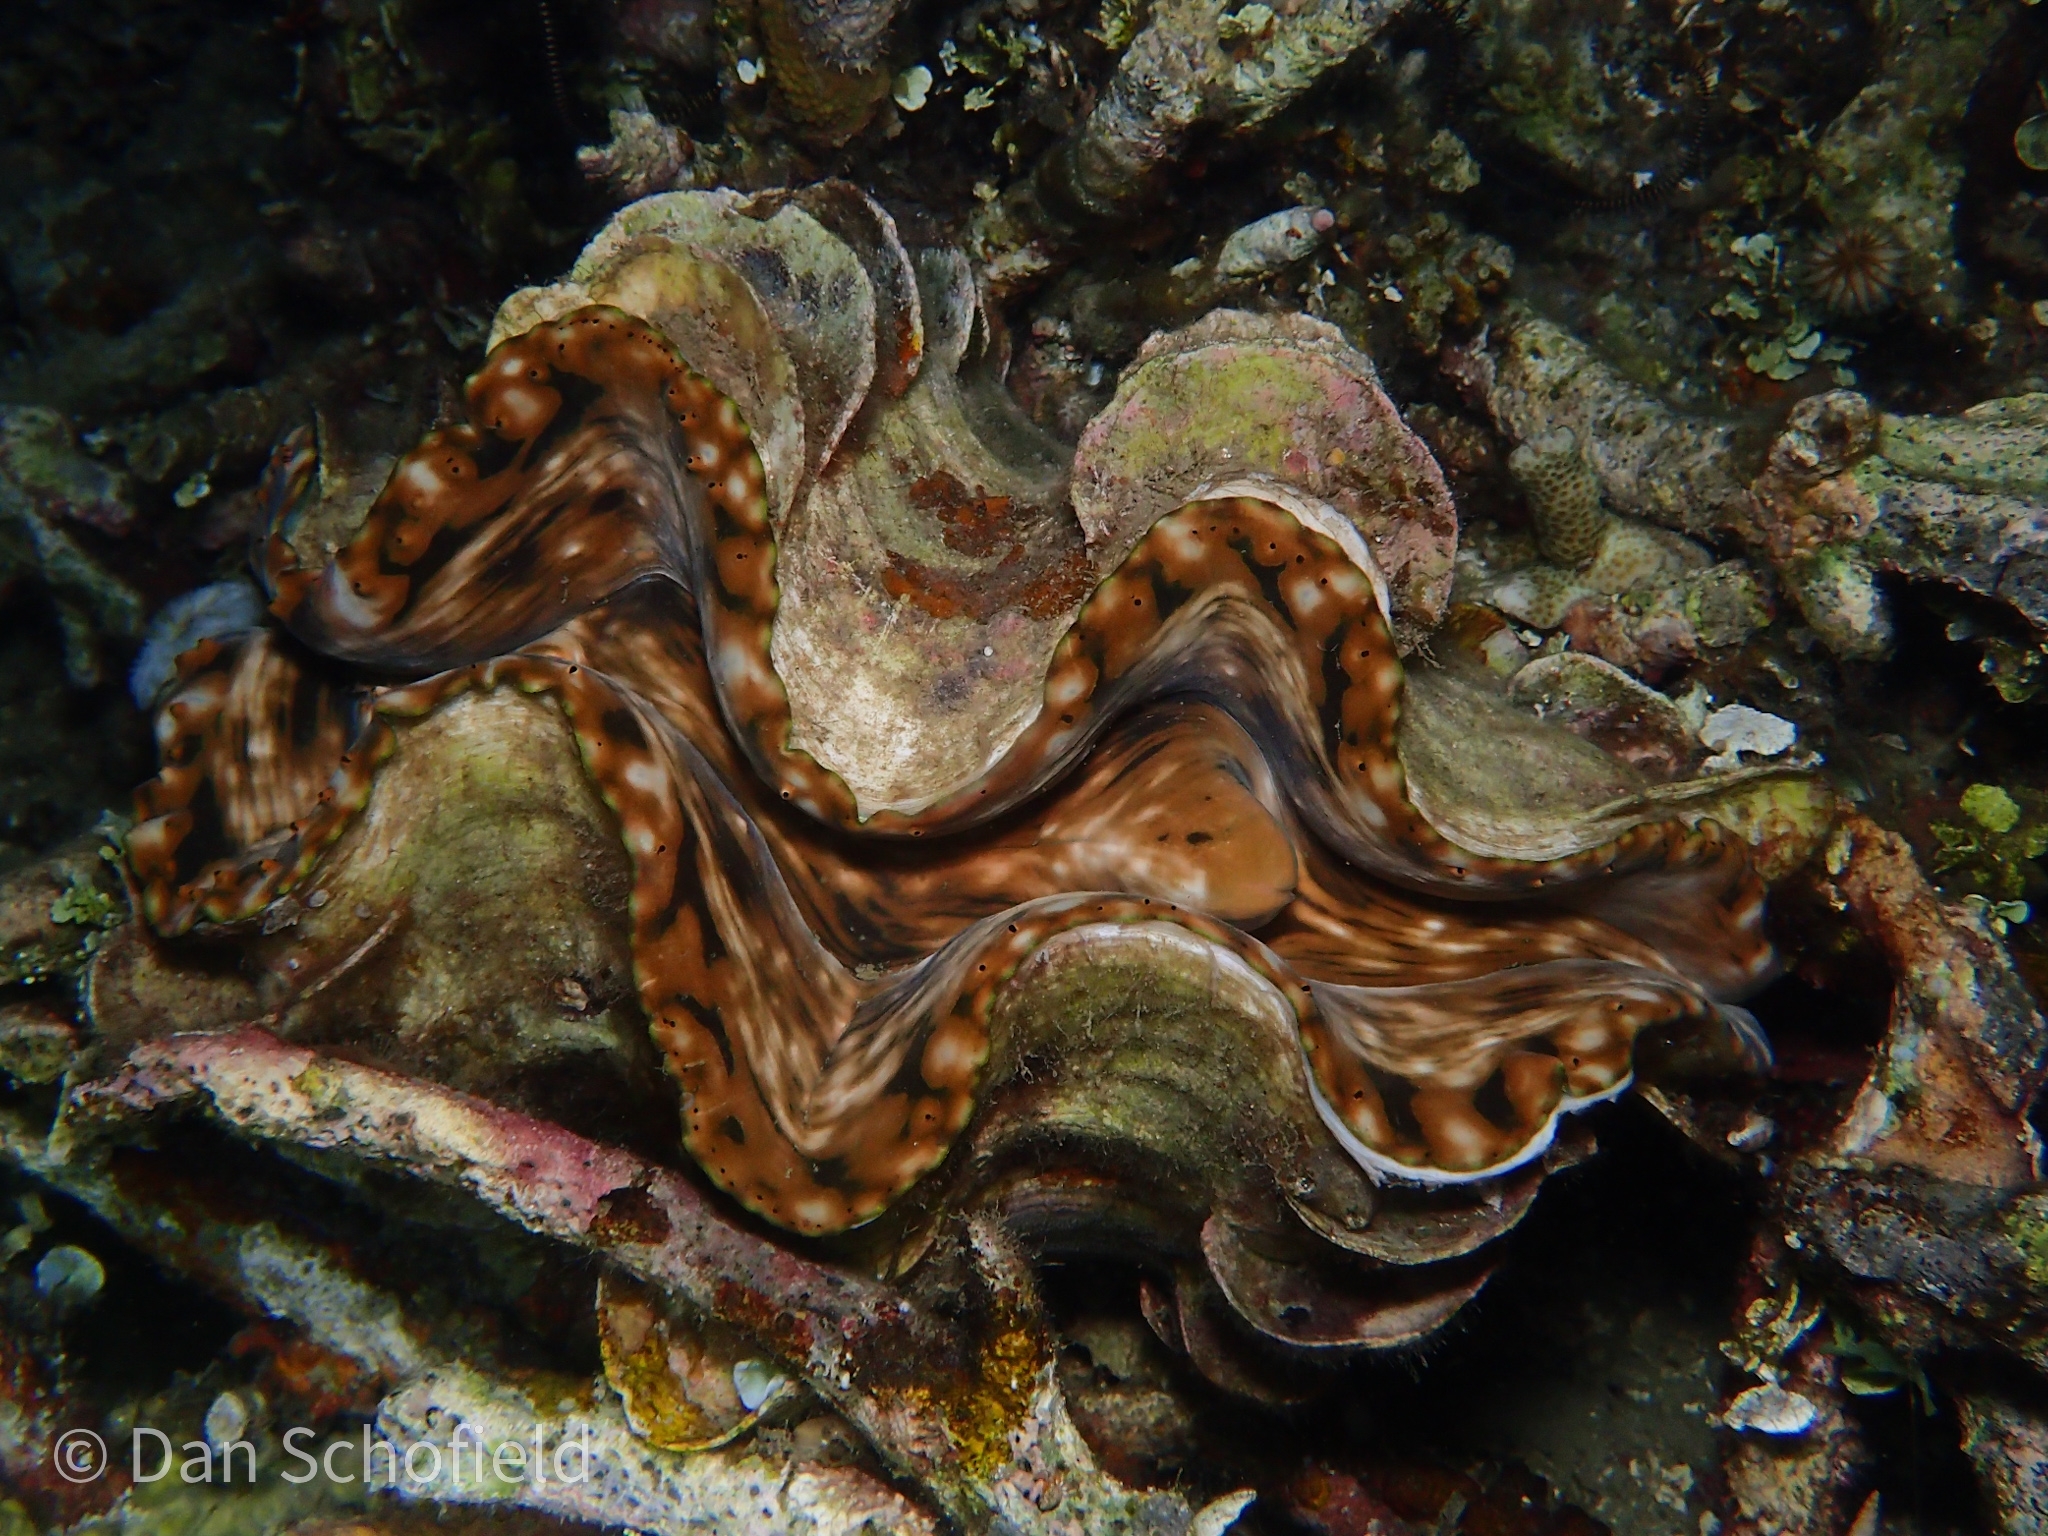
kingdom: Animalia
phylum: Mollusca
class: Bivalvia
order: Cardiida
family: Cardiidae
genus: Tridacna
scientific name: Tridacna squamosa
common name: Fluted clam
